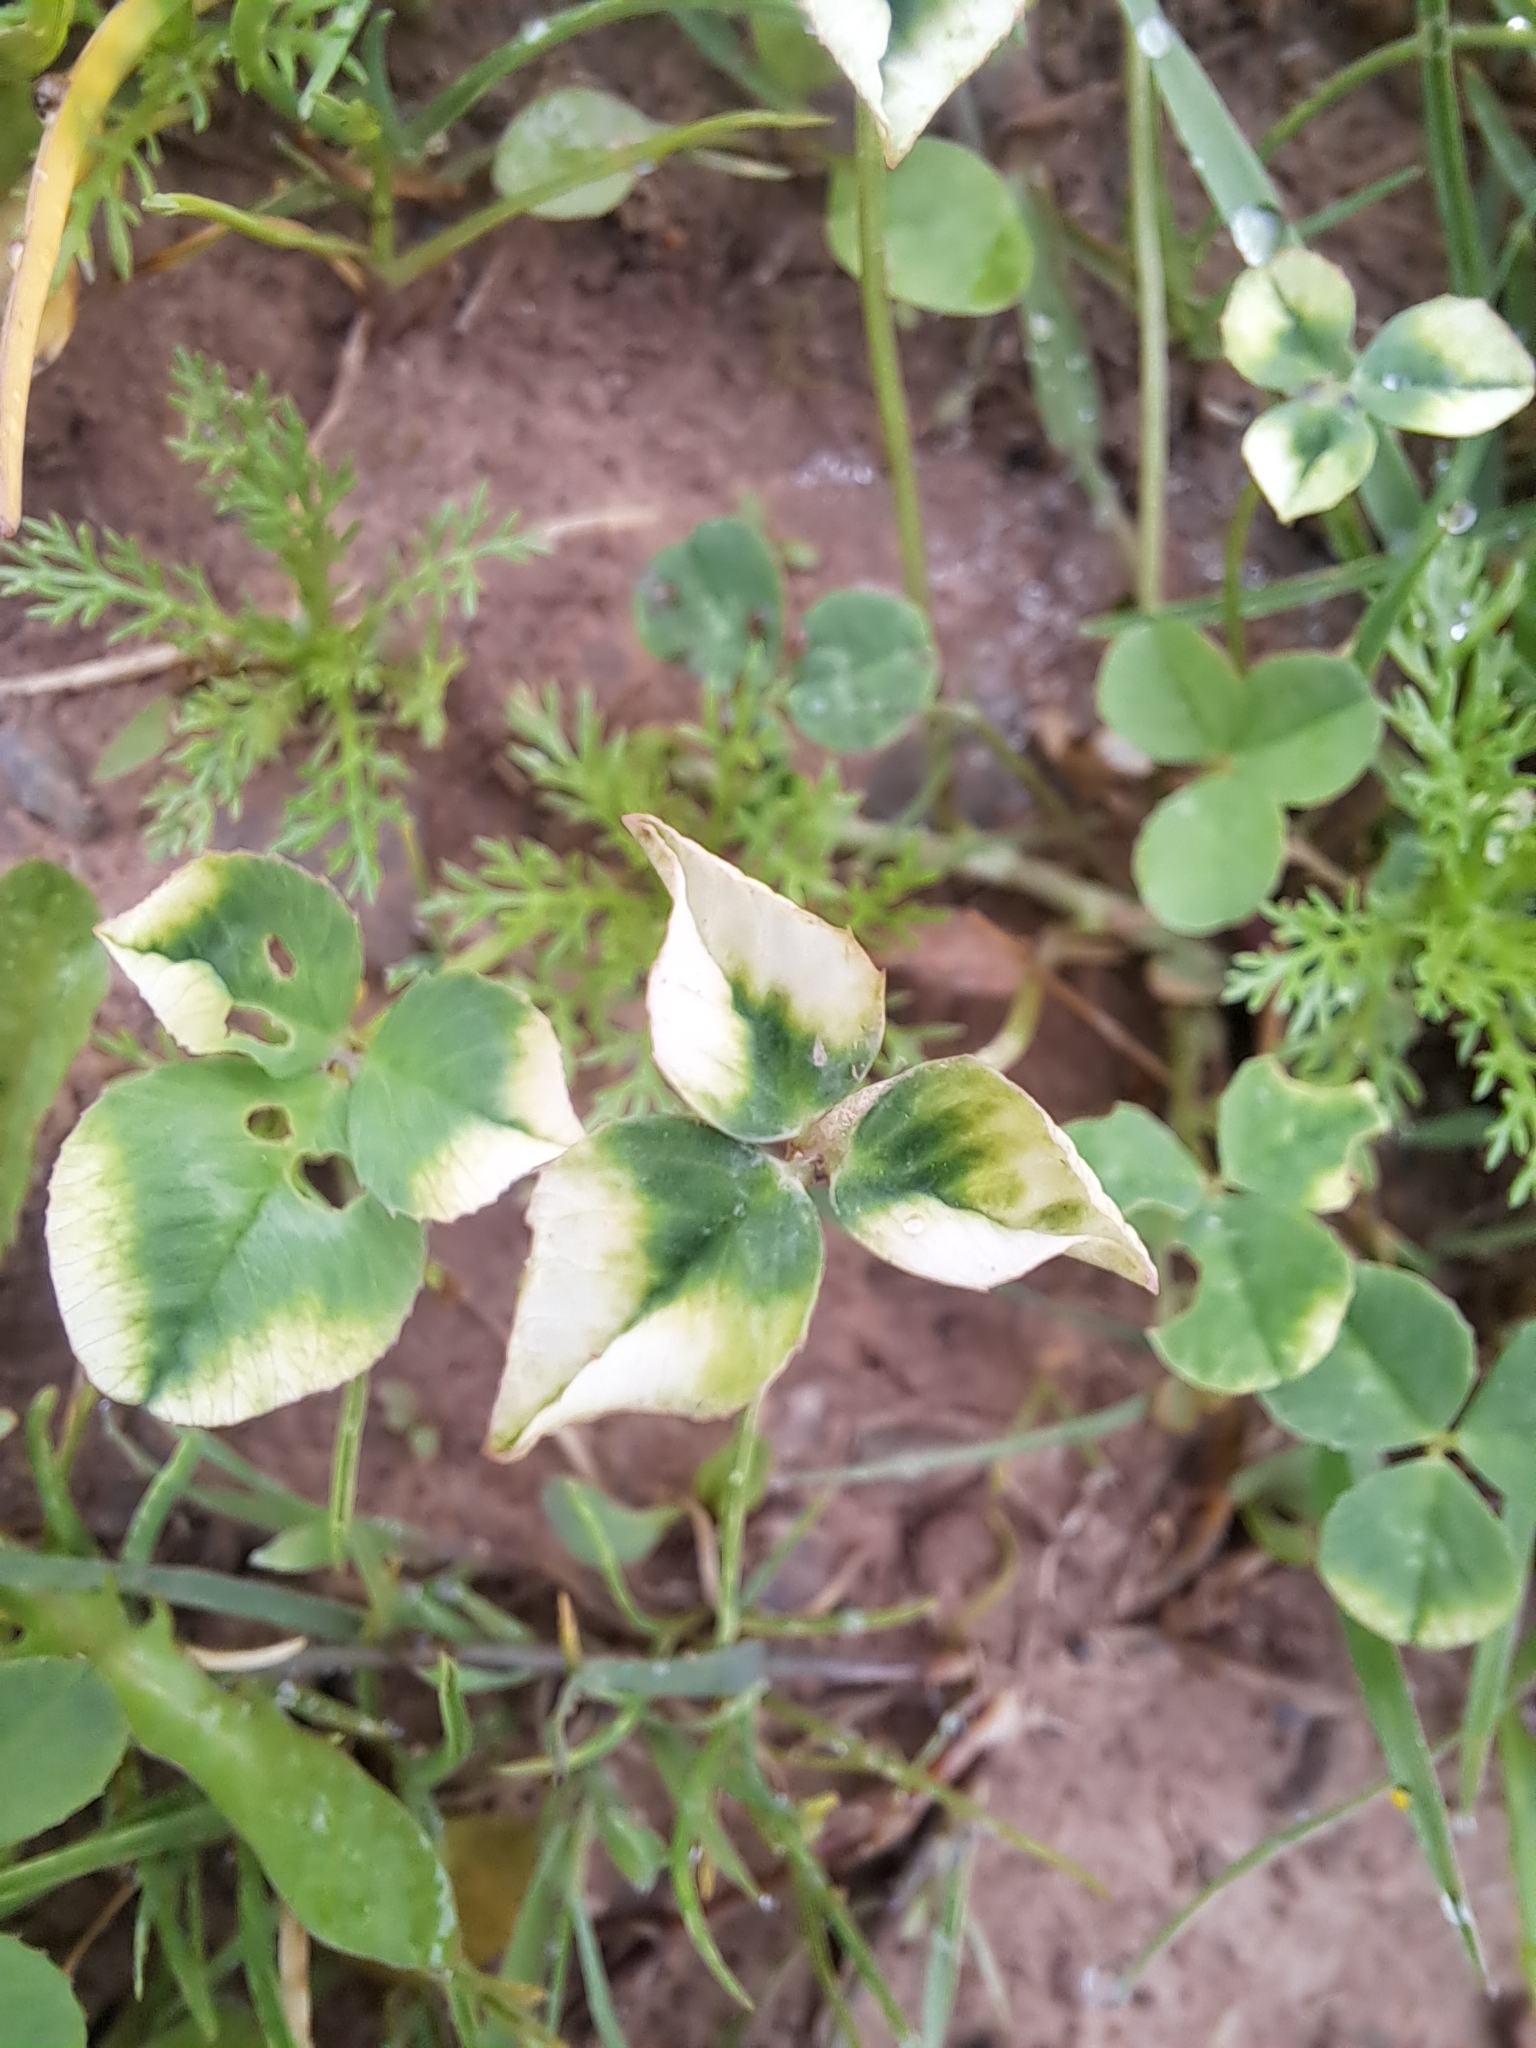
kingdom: Plantae
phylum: Tracheophyta
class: Magnoliopsida
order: Fabales
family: Fabaceae
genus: Trifolium
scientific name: Trifolium repens
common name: White clover
